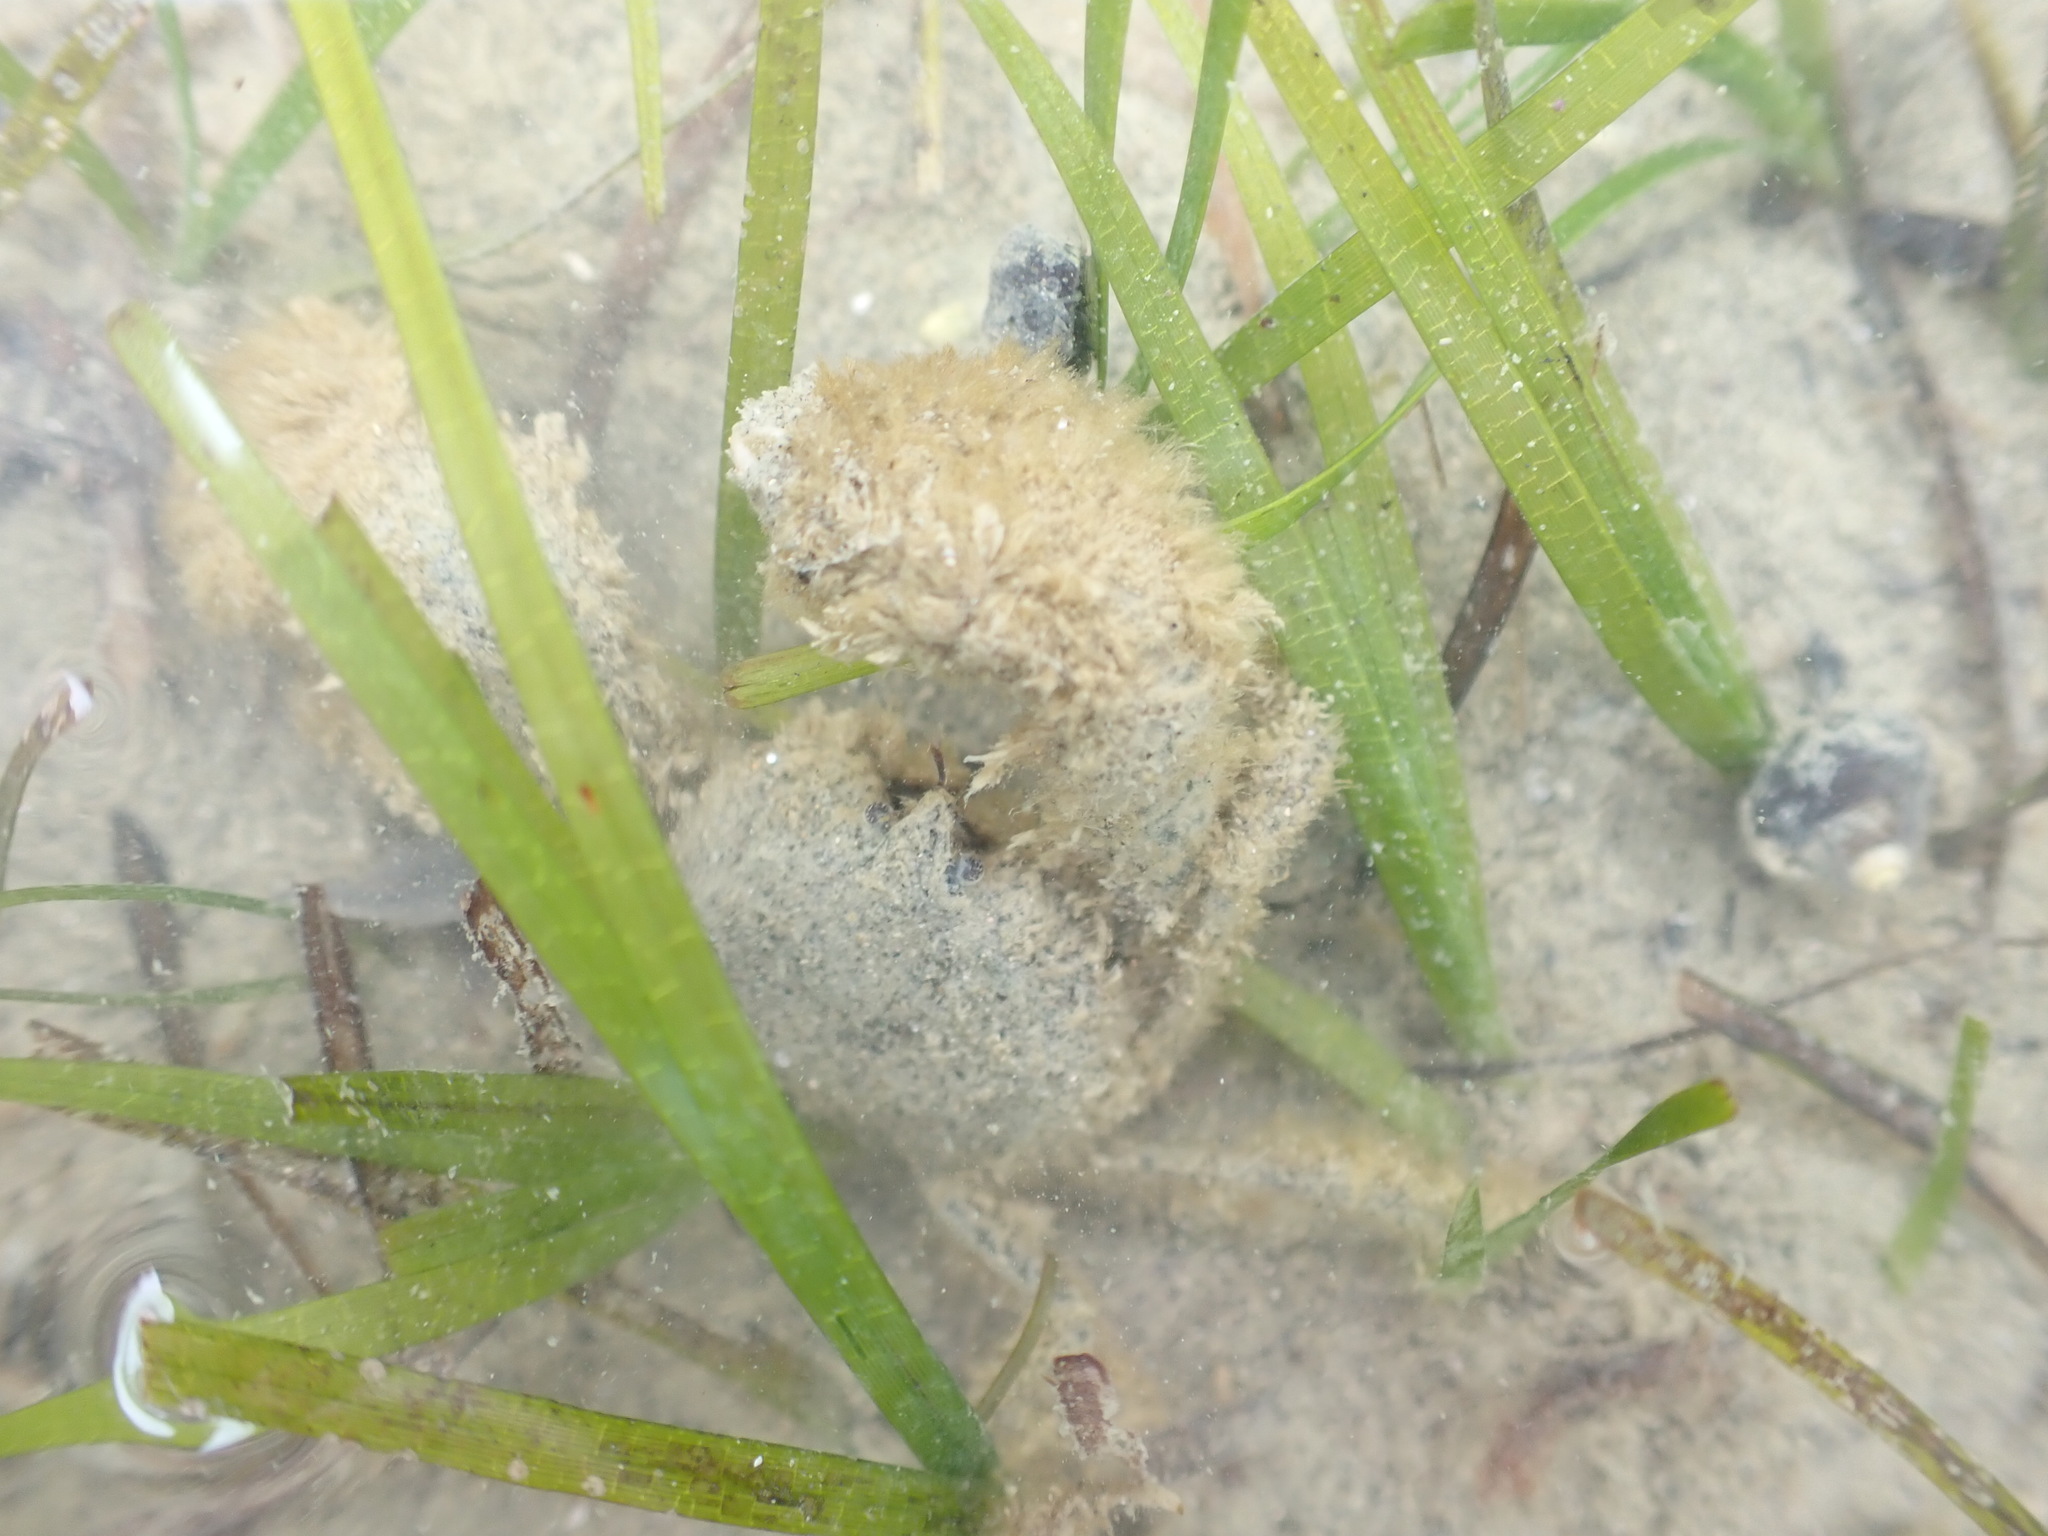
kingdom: Animalia
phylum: Arthropoda
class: Malacostraca
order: Decapoda
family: Hymenosomatidae
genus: Halicarcinus
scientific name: Halicarcinus whitei
